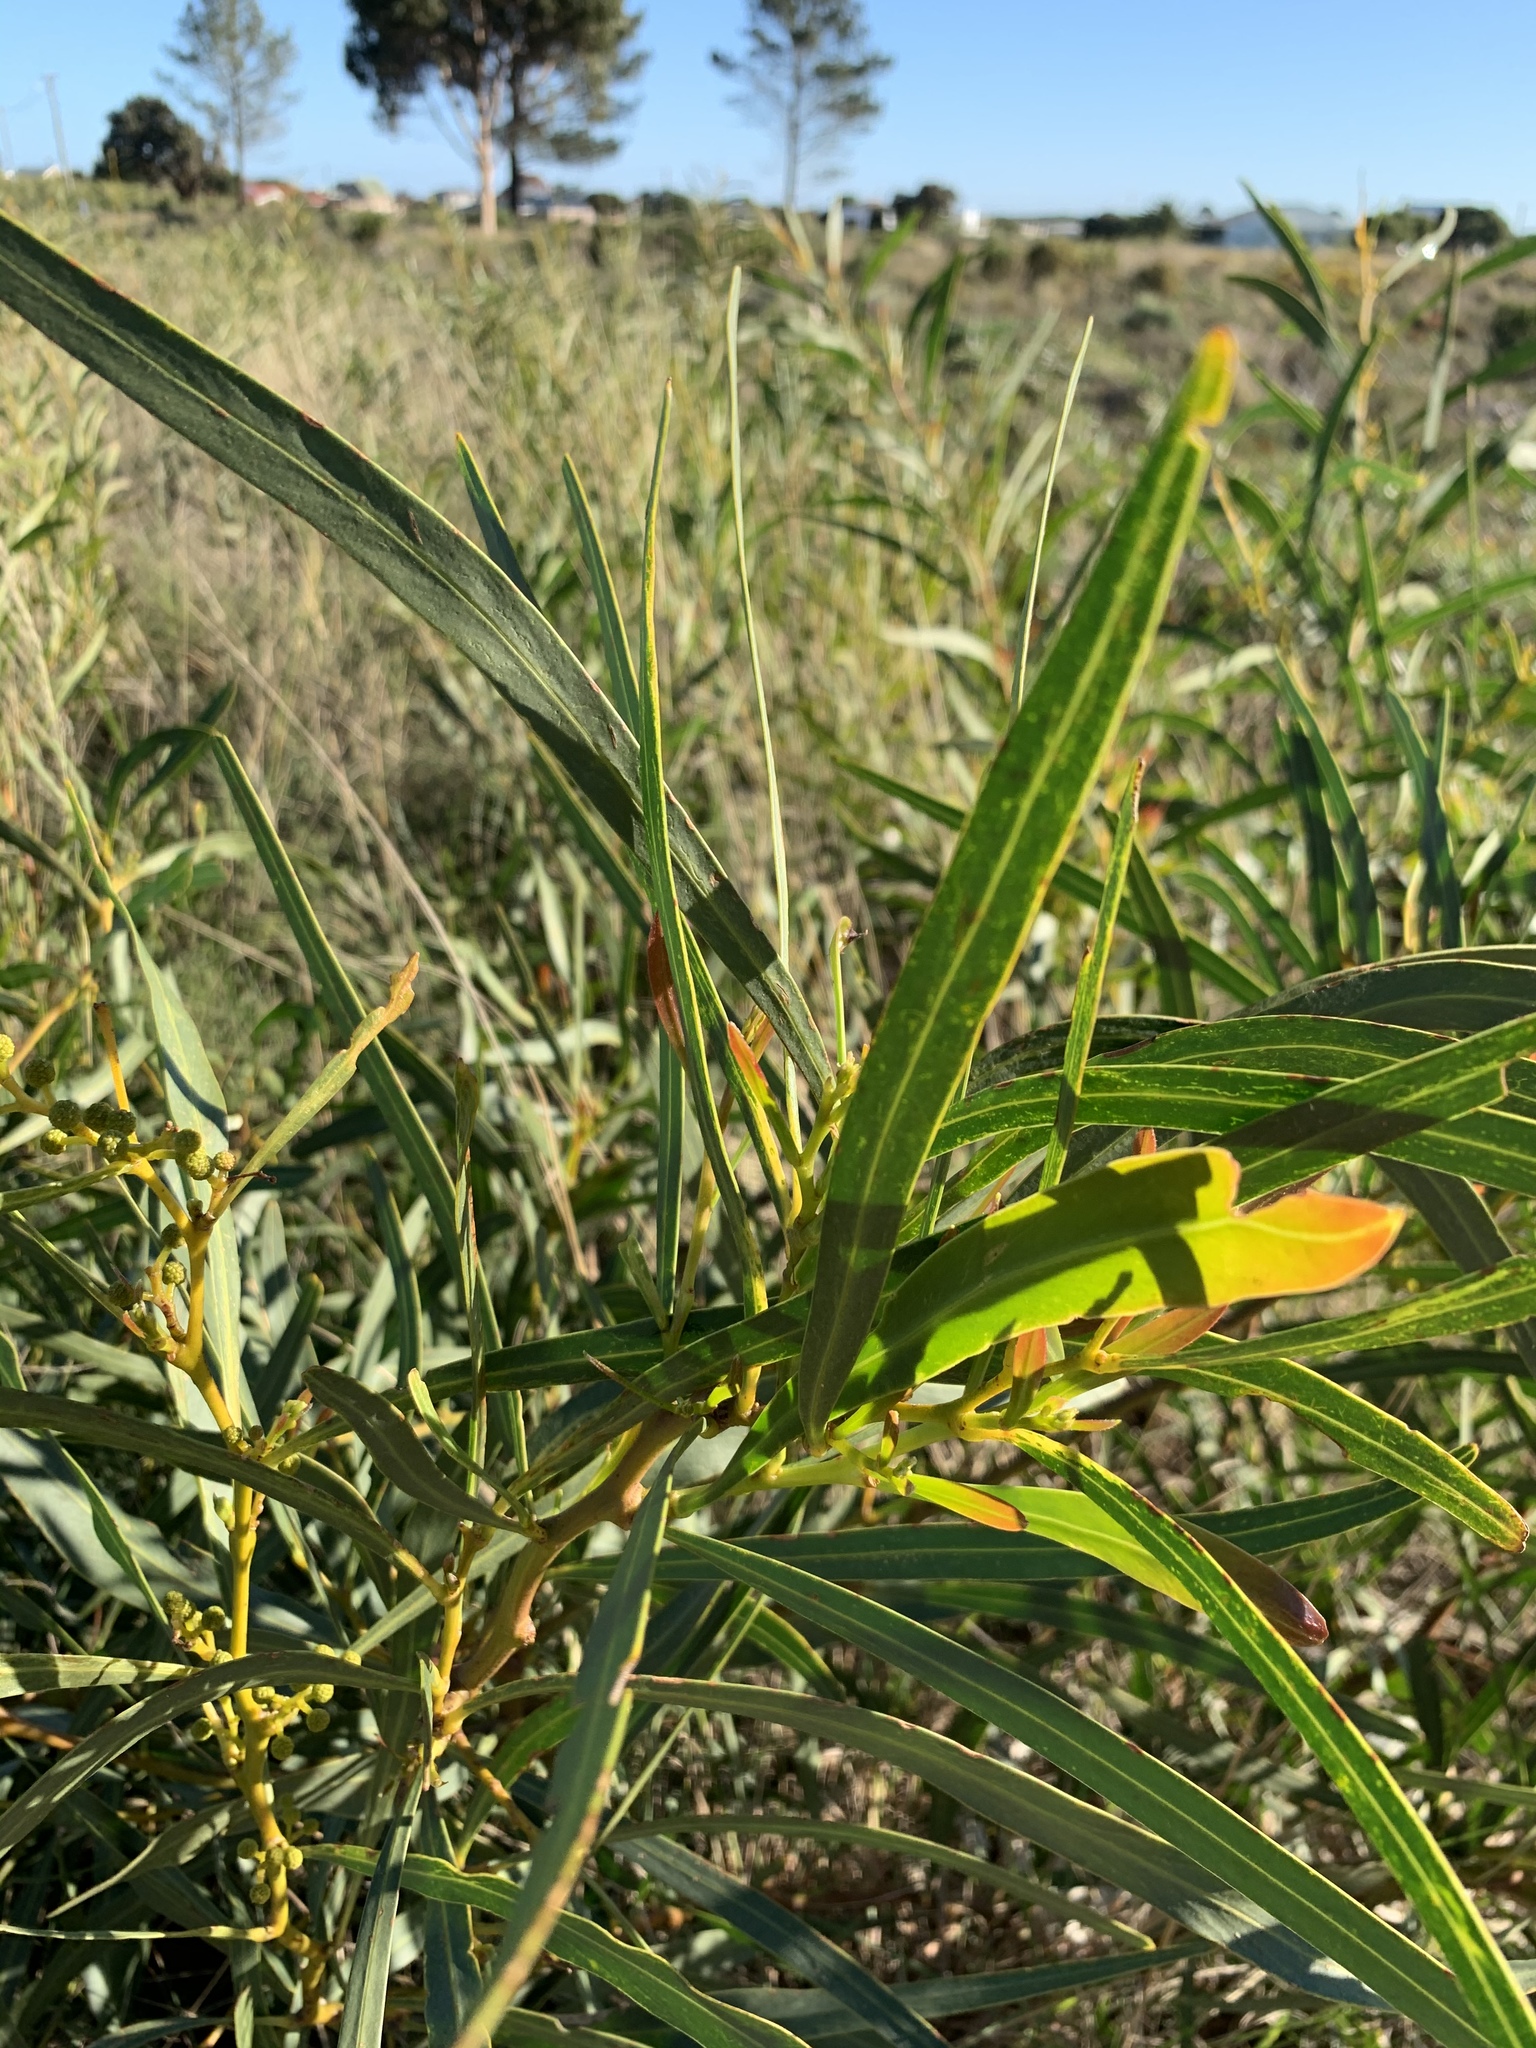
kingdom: Plantae
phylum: Tracheophyta
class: Magnoliopsida
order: Fabales
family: Fabaceae
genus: Acacia
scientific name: Acacia saligna
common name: Orange wattle
